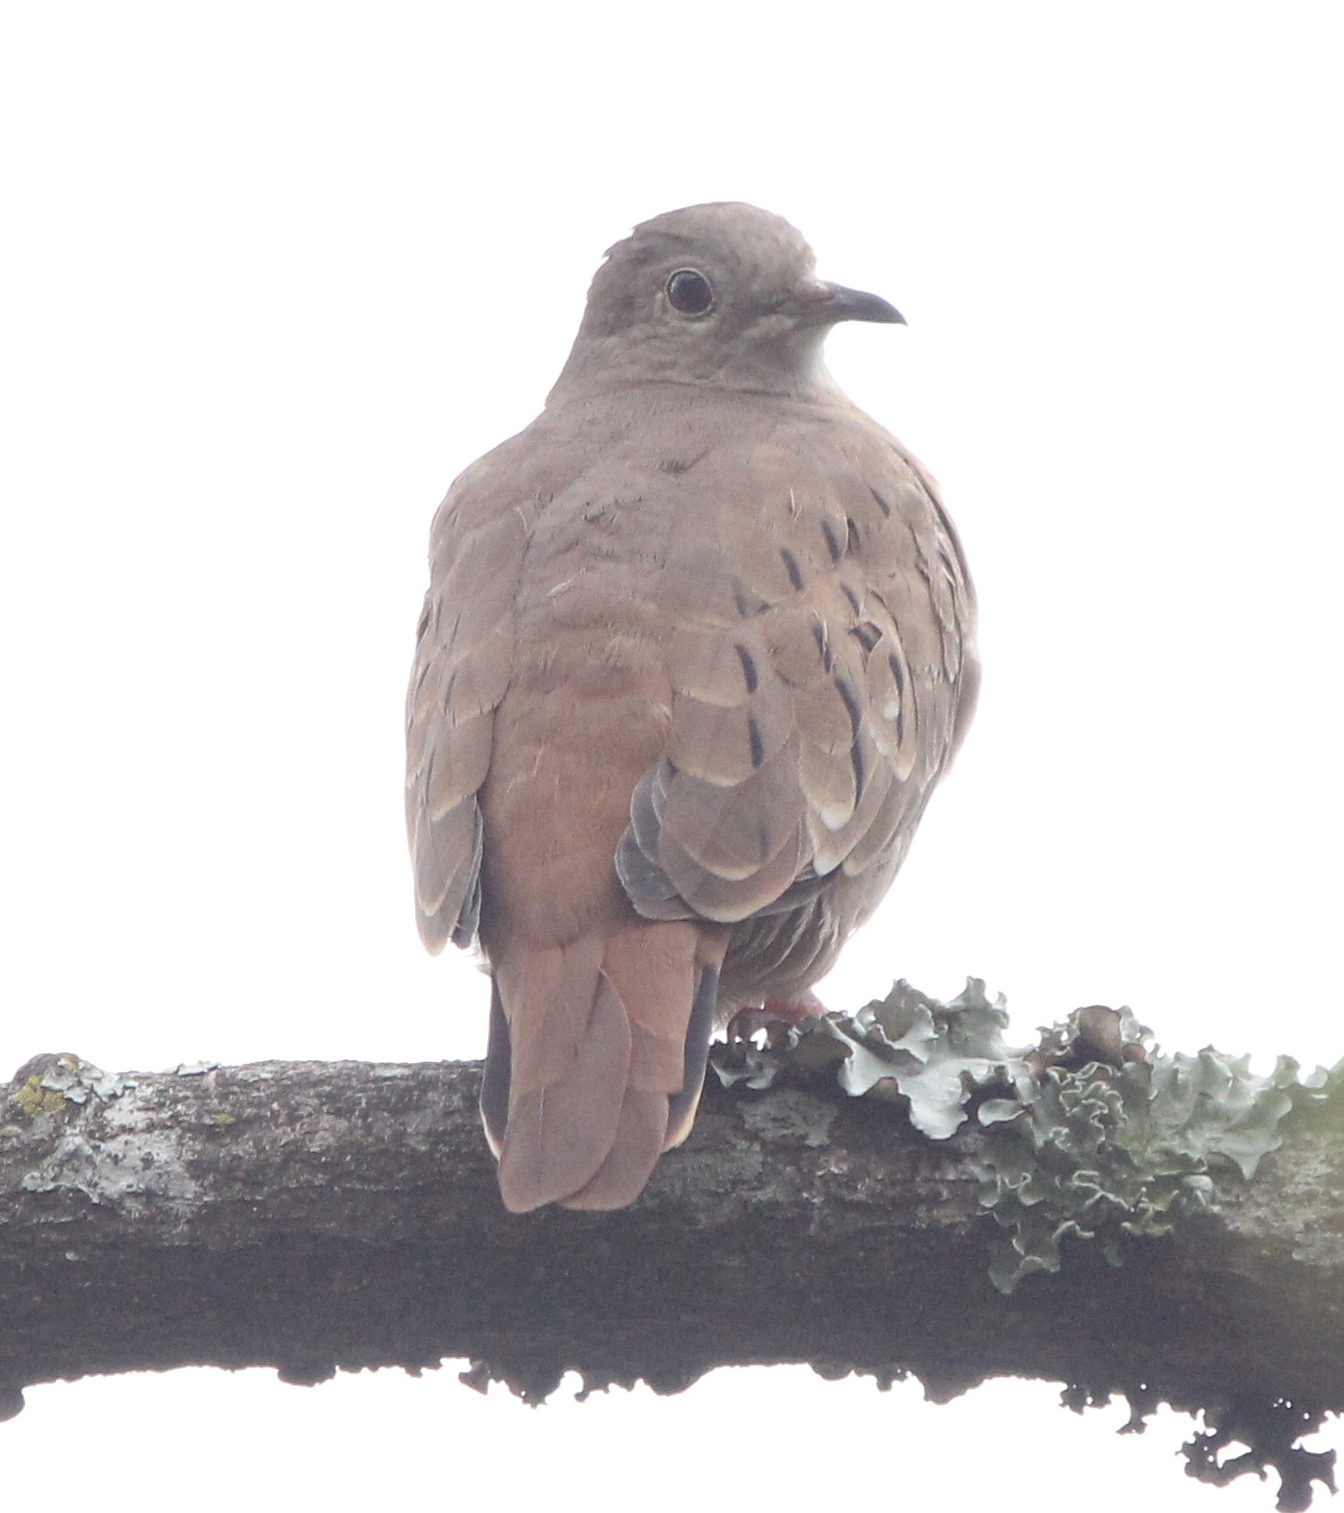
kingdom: Animalia
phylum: Chordata
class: Aves
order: Columbiformes
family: Columbidae
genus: Columbina
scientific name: Columbina talpacoti
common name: Ruddy ground dove
